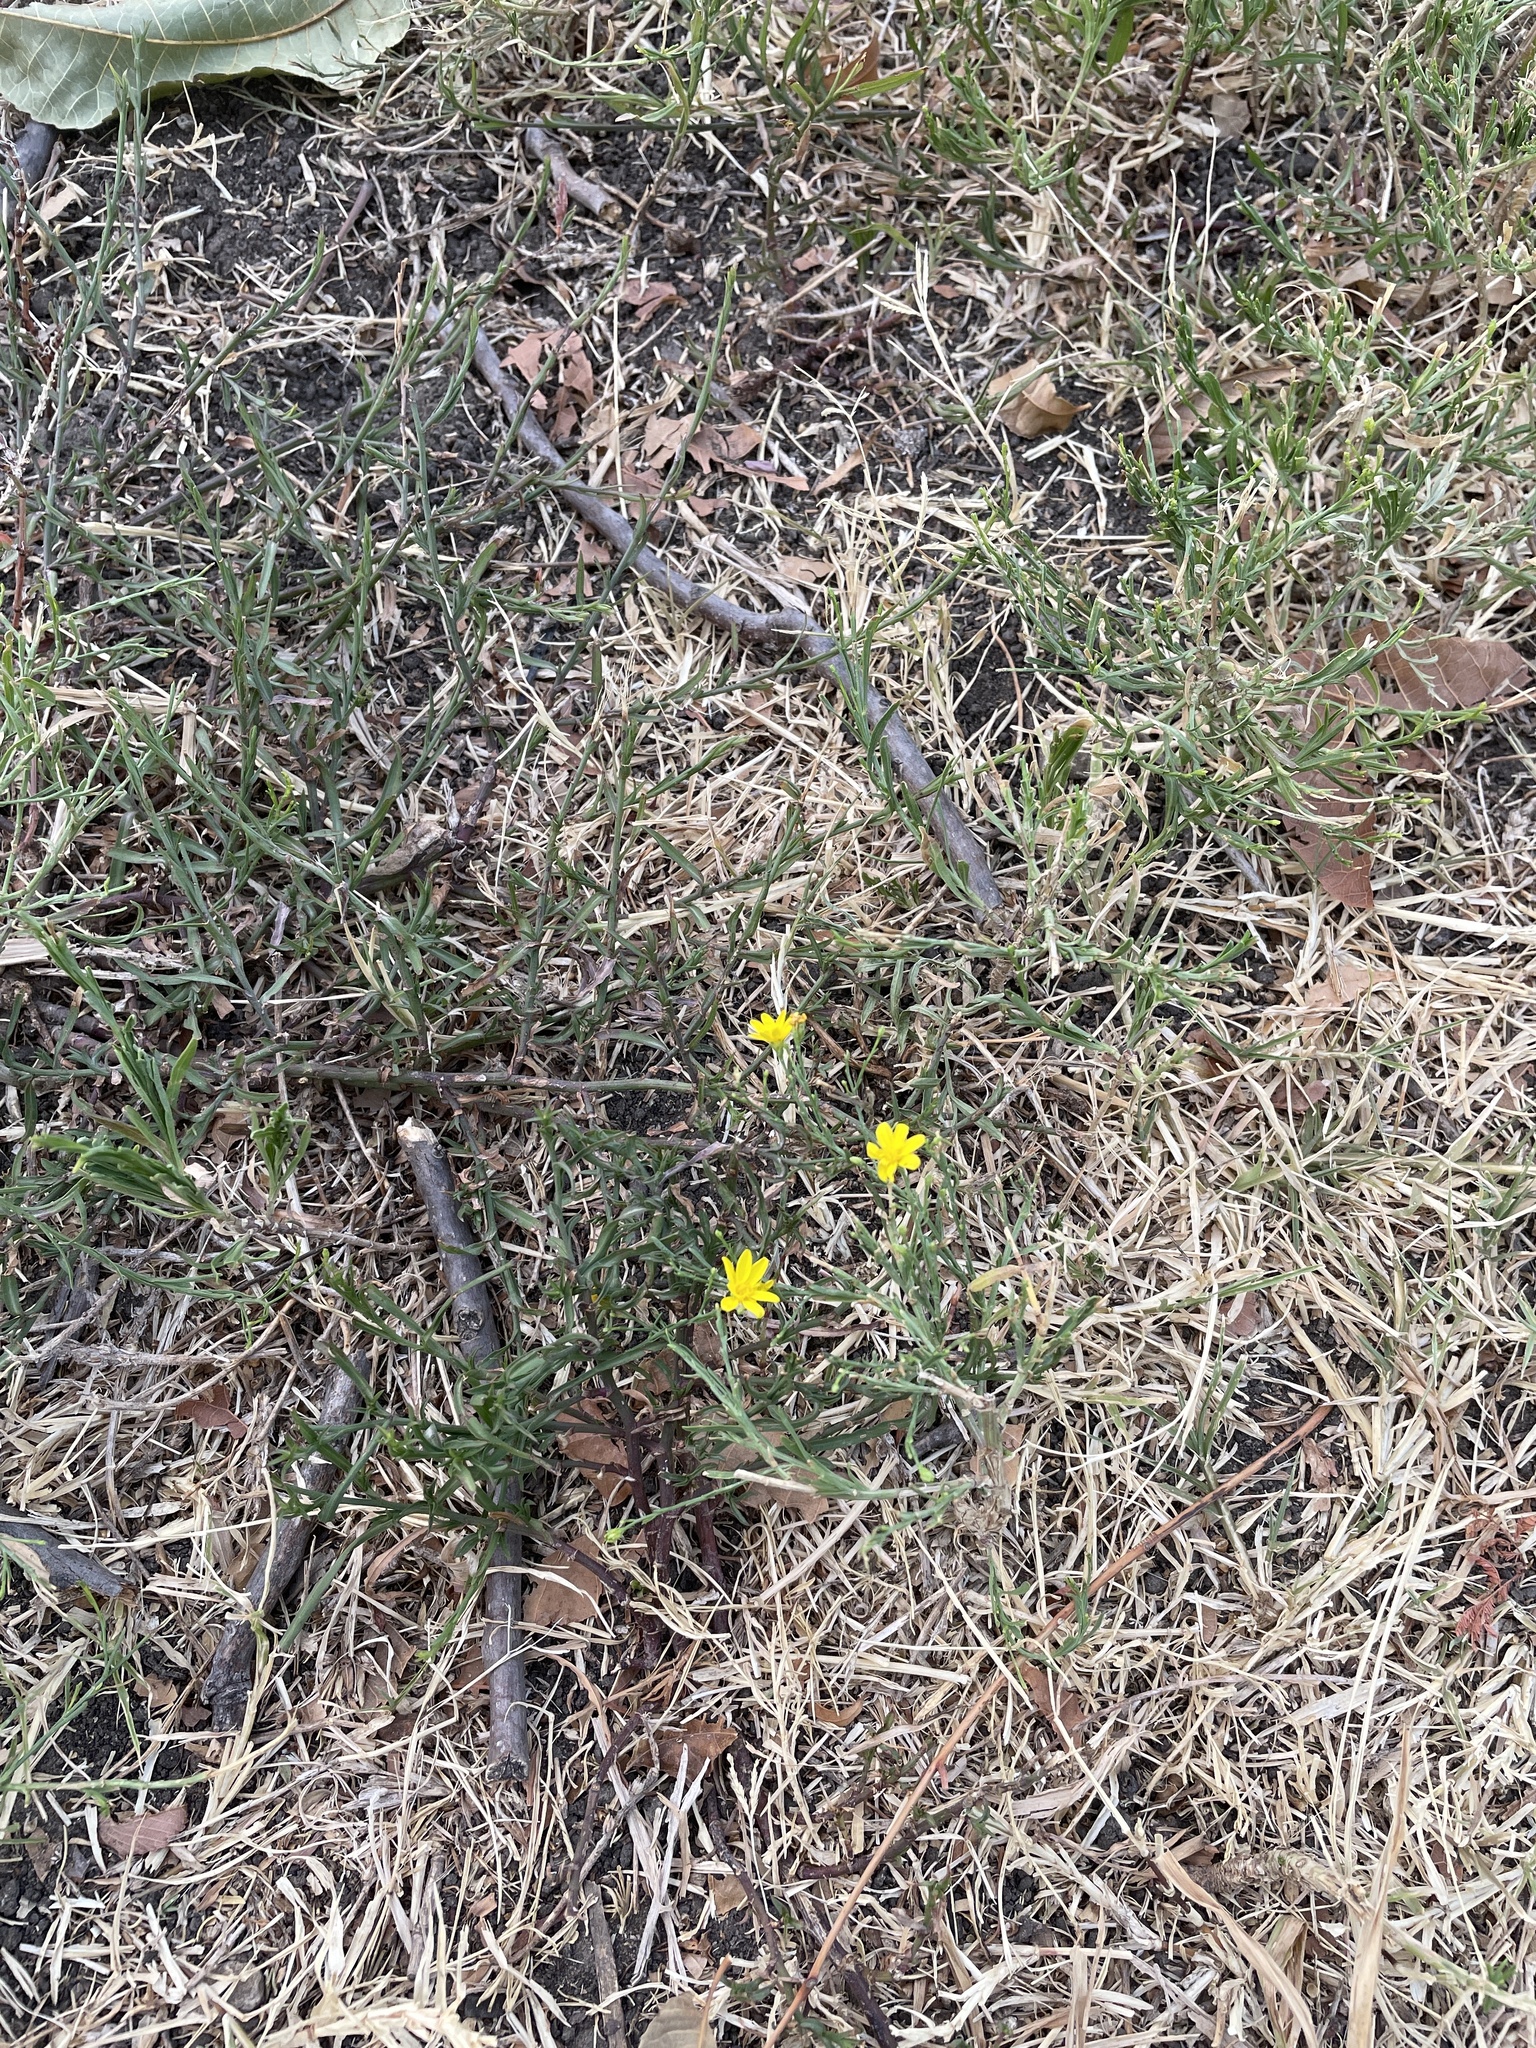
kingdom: Plantae
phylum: Tracheophyta
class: Magnoliopsida
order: Asterales
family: Asteraceae
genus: Gutierrezia
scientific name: Gutierrezia texana
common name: Texas snakeweed
